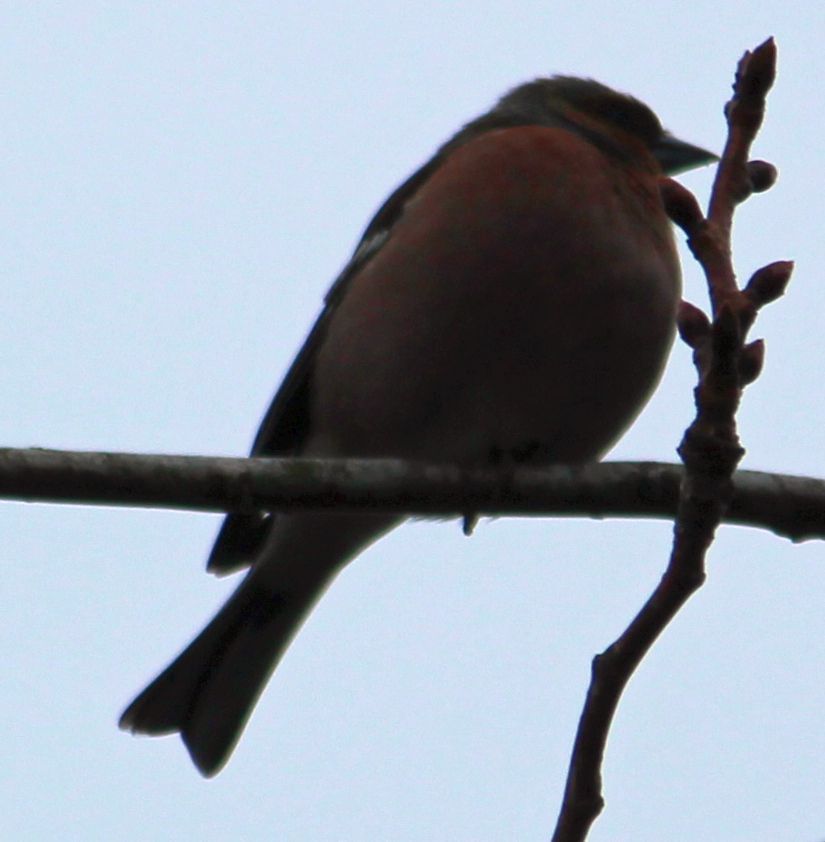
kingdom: Animalia
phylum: Chordata
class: Aves
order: Passeriformes
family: Fringillidae
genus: Fringilla
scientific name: Fringilla coelebs
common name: Common chaffinch
